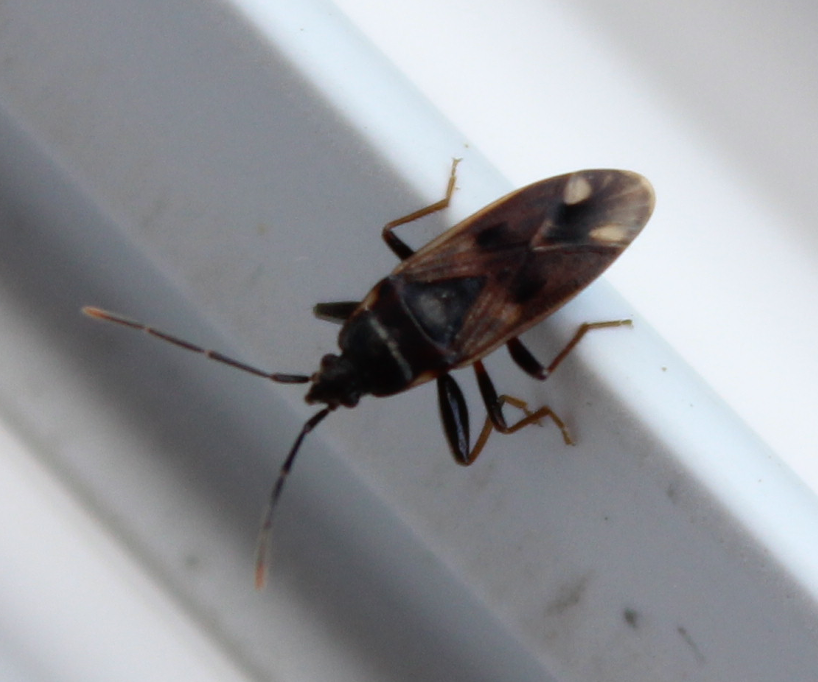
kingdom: Animalia
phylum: Arthropoda
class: Insecta
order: Hemiptera
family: Rhyparochromidae
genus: Eremocoris
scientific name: Eremocoris fenestratus
